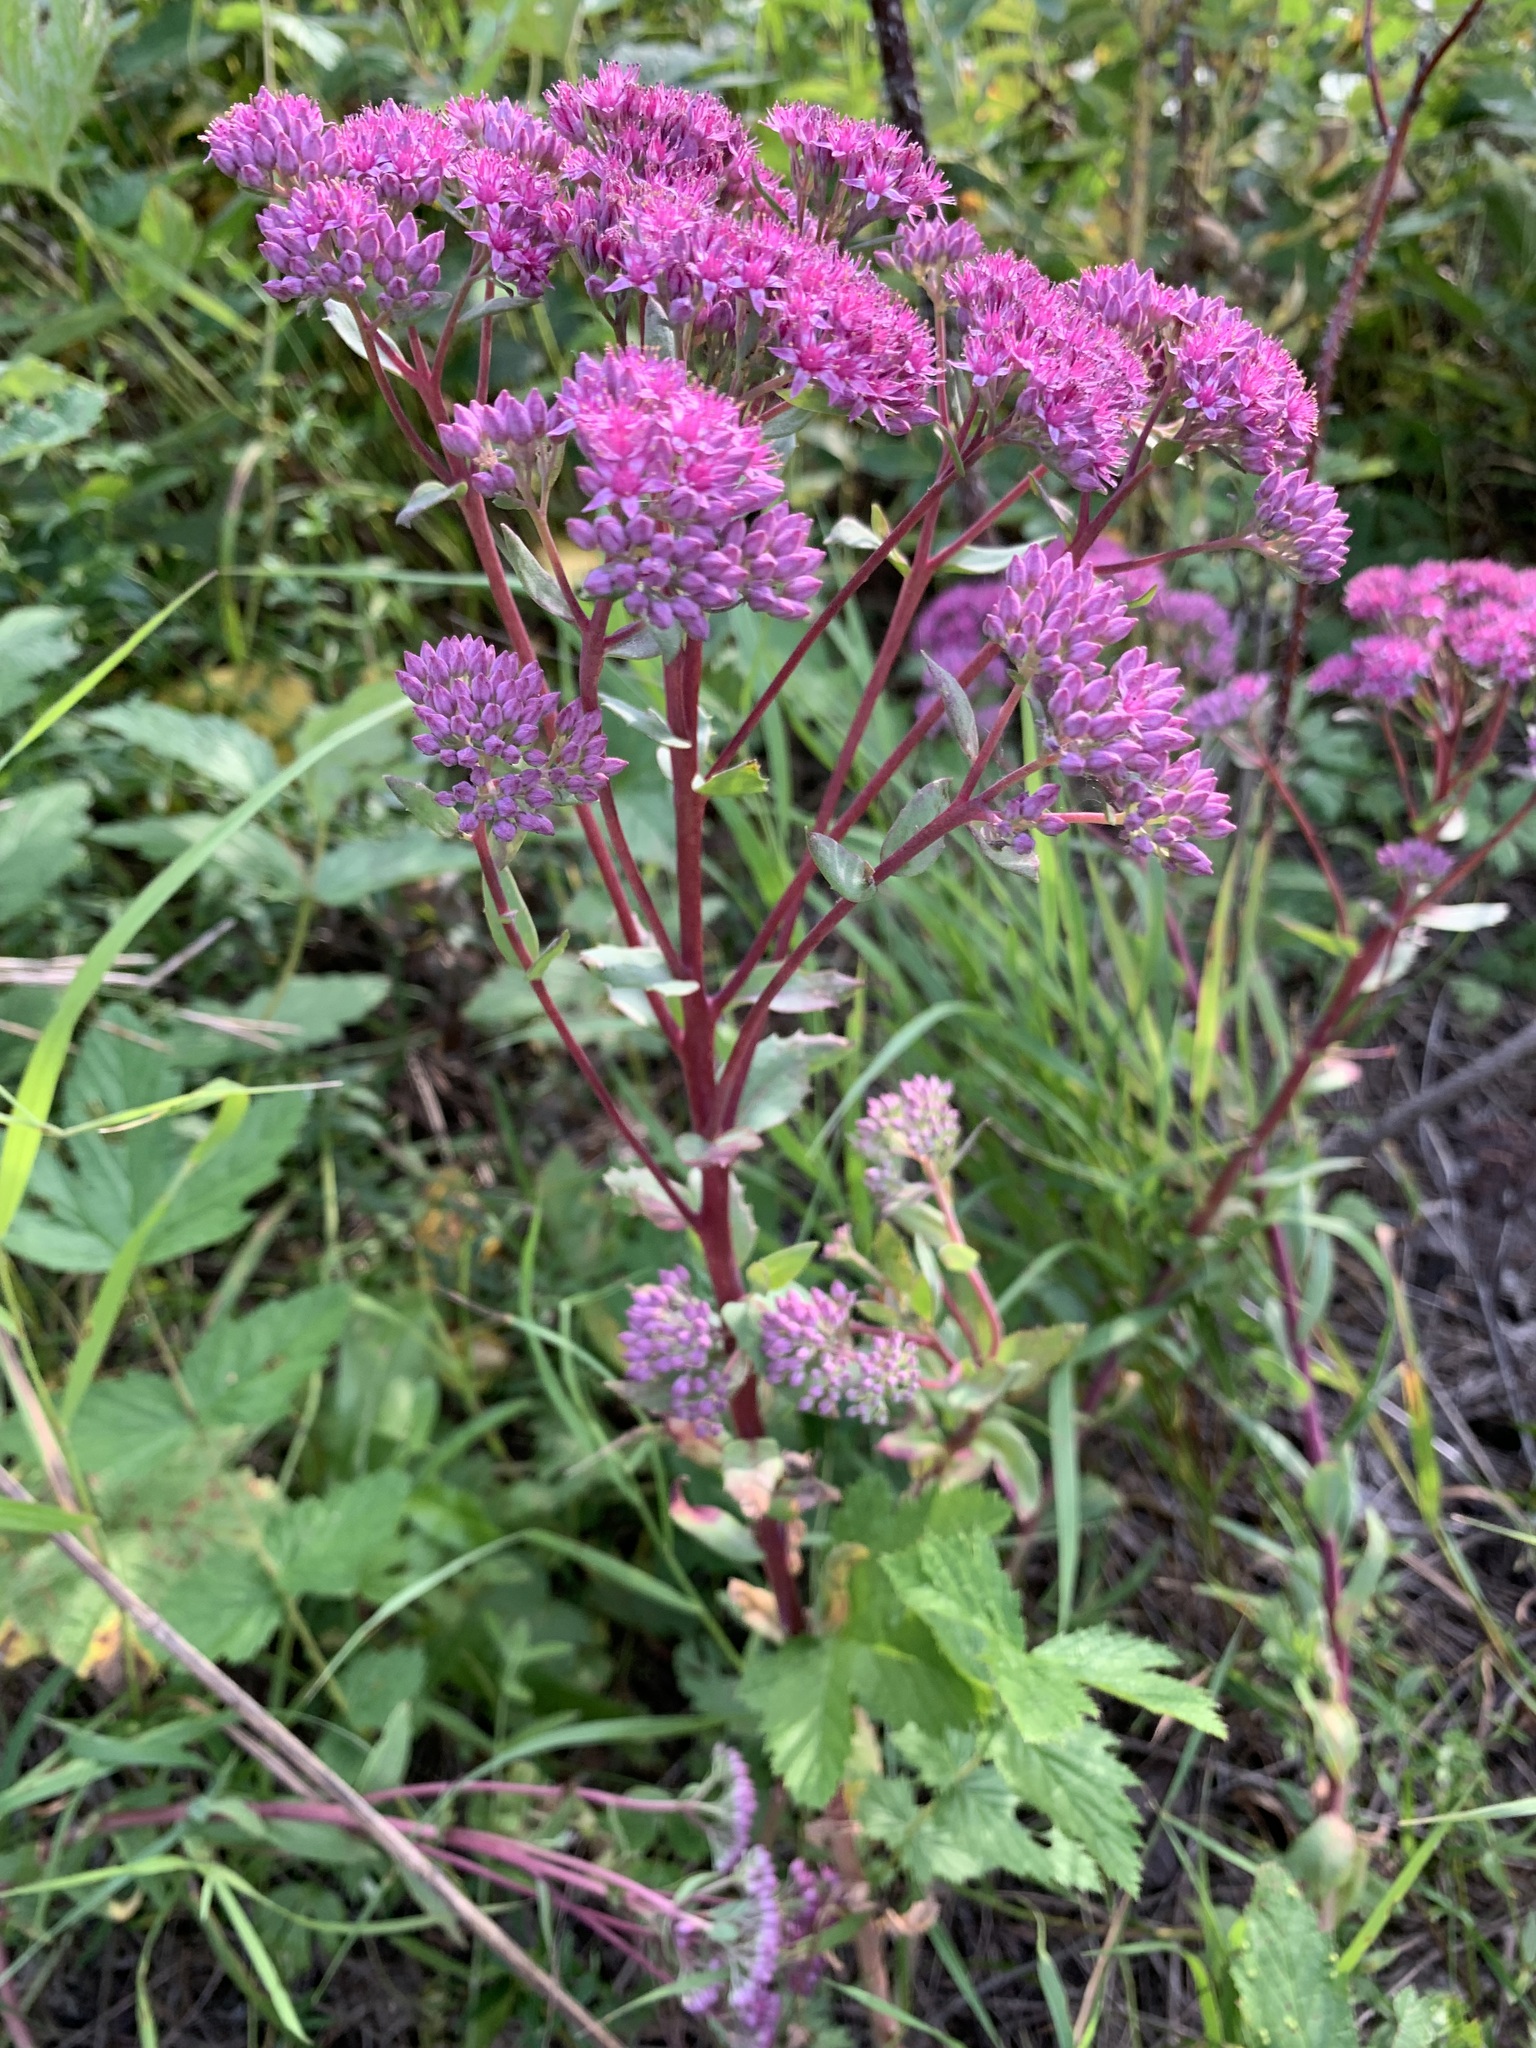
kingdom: Plantae
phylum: Tracheophyta
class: Magnoliopsida
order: Saxifragales
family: Crassulaceae
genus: Hylotelephium
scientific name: Hylotelephium telephium
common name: Live-forever
